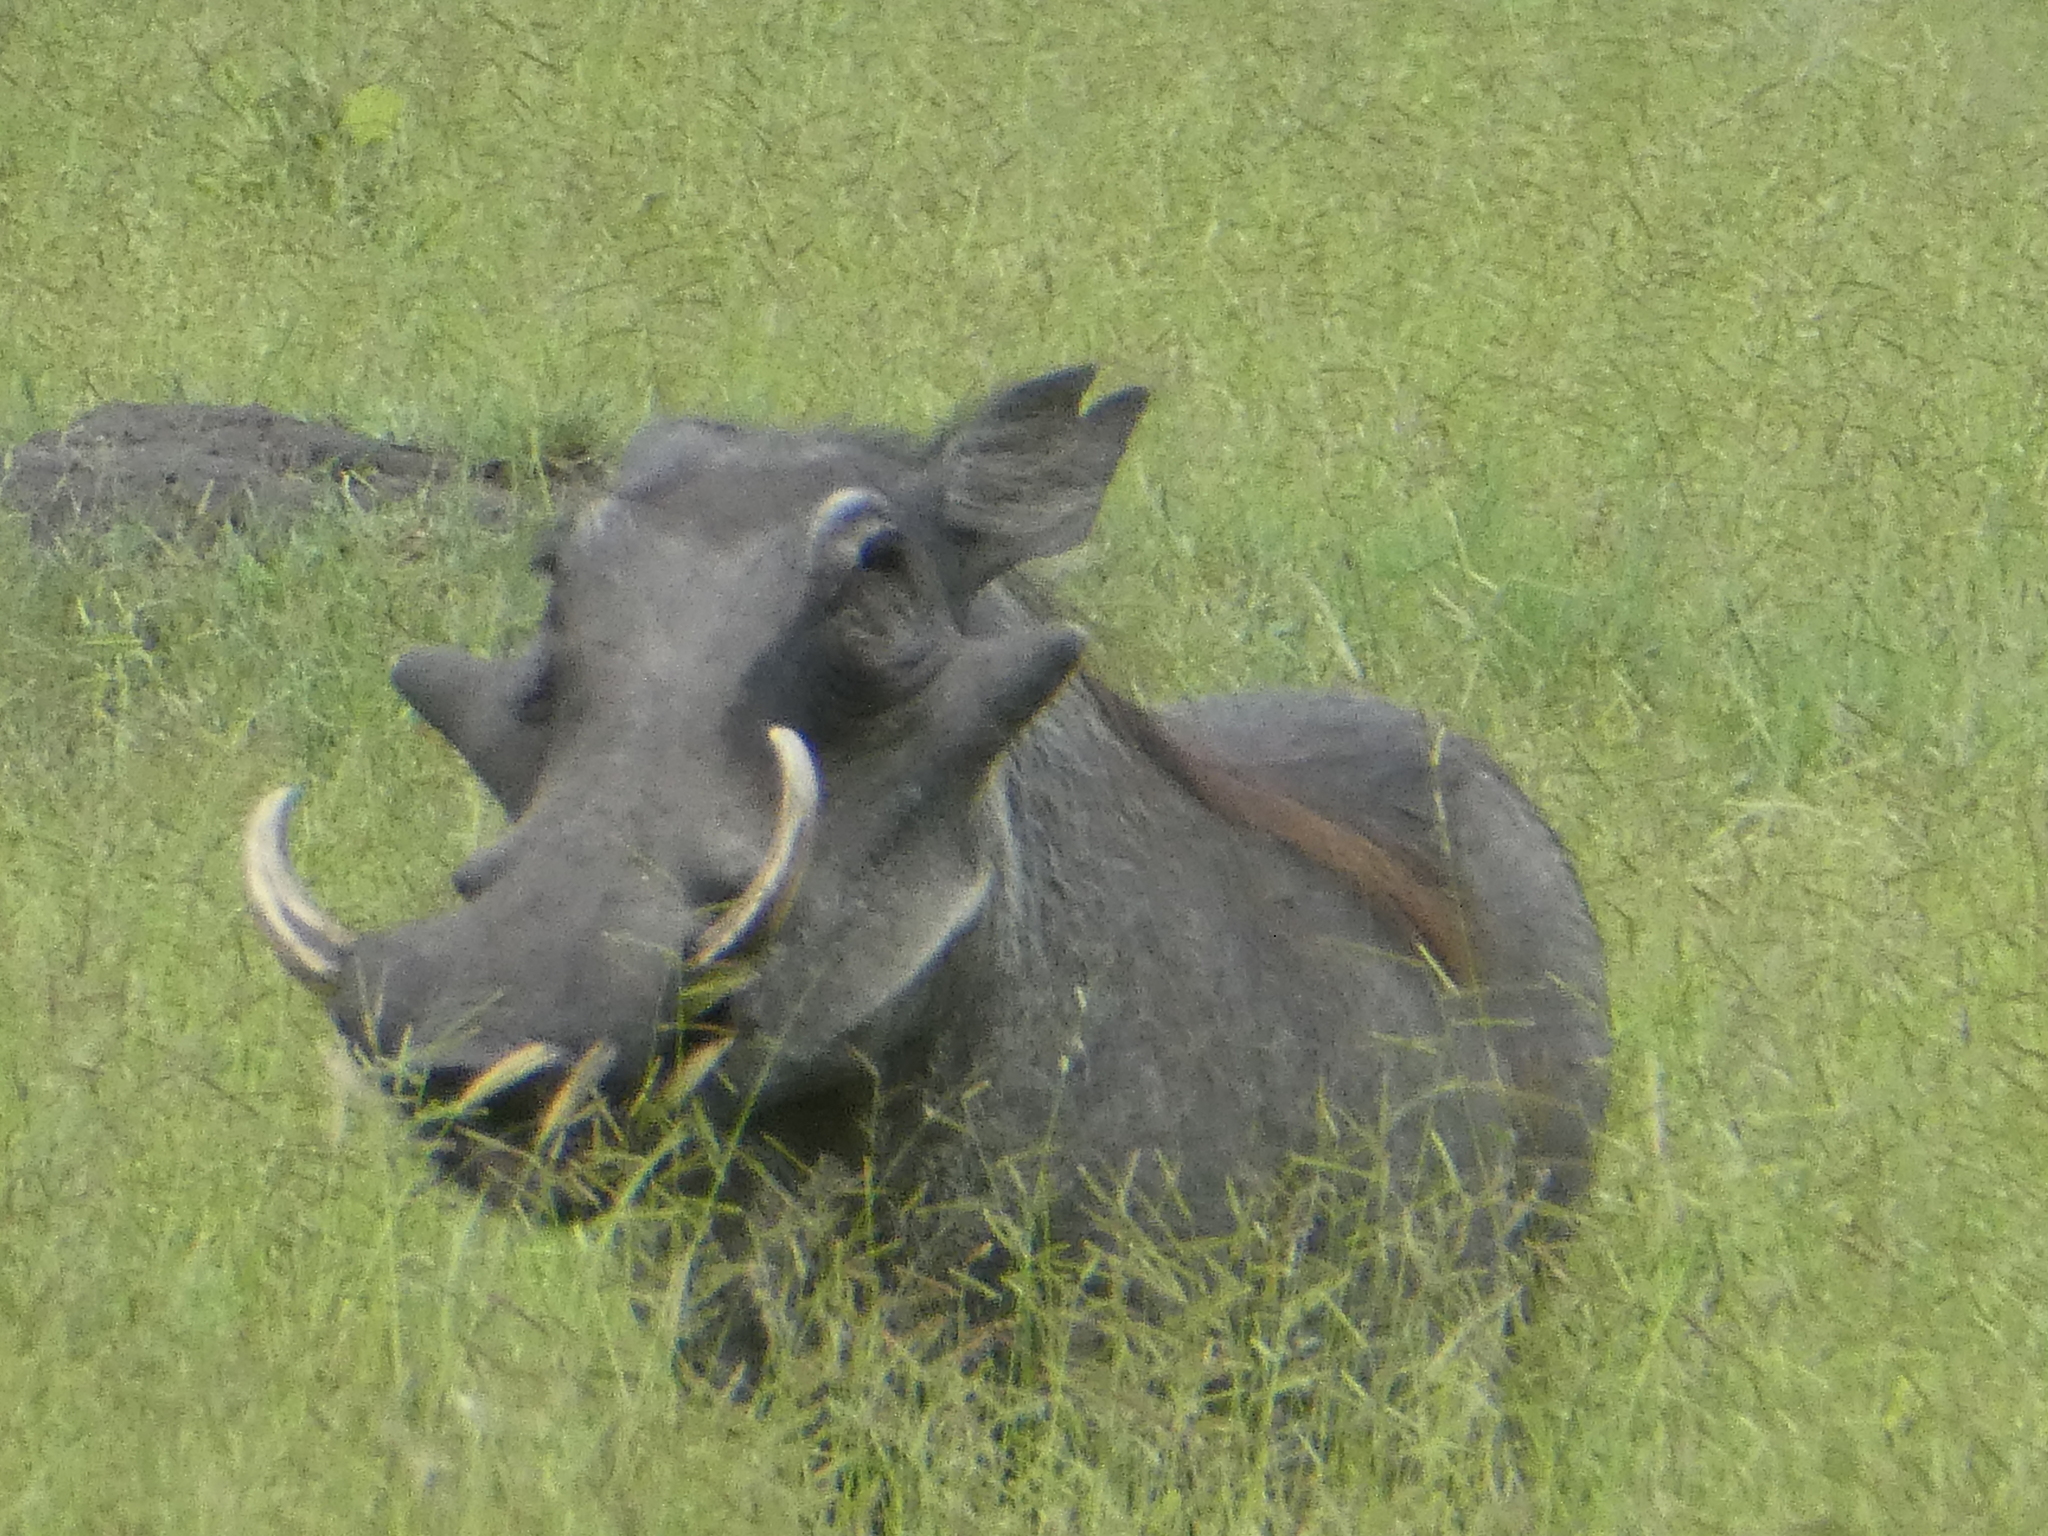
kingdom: Animalia
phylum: Chordata
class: Mammalia
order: Artiodactyla
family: Suidae
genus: Phacochoerus
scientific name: Phacochoerus africanus
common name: Common warthog
